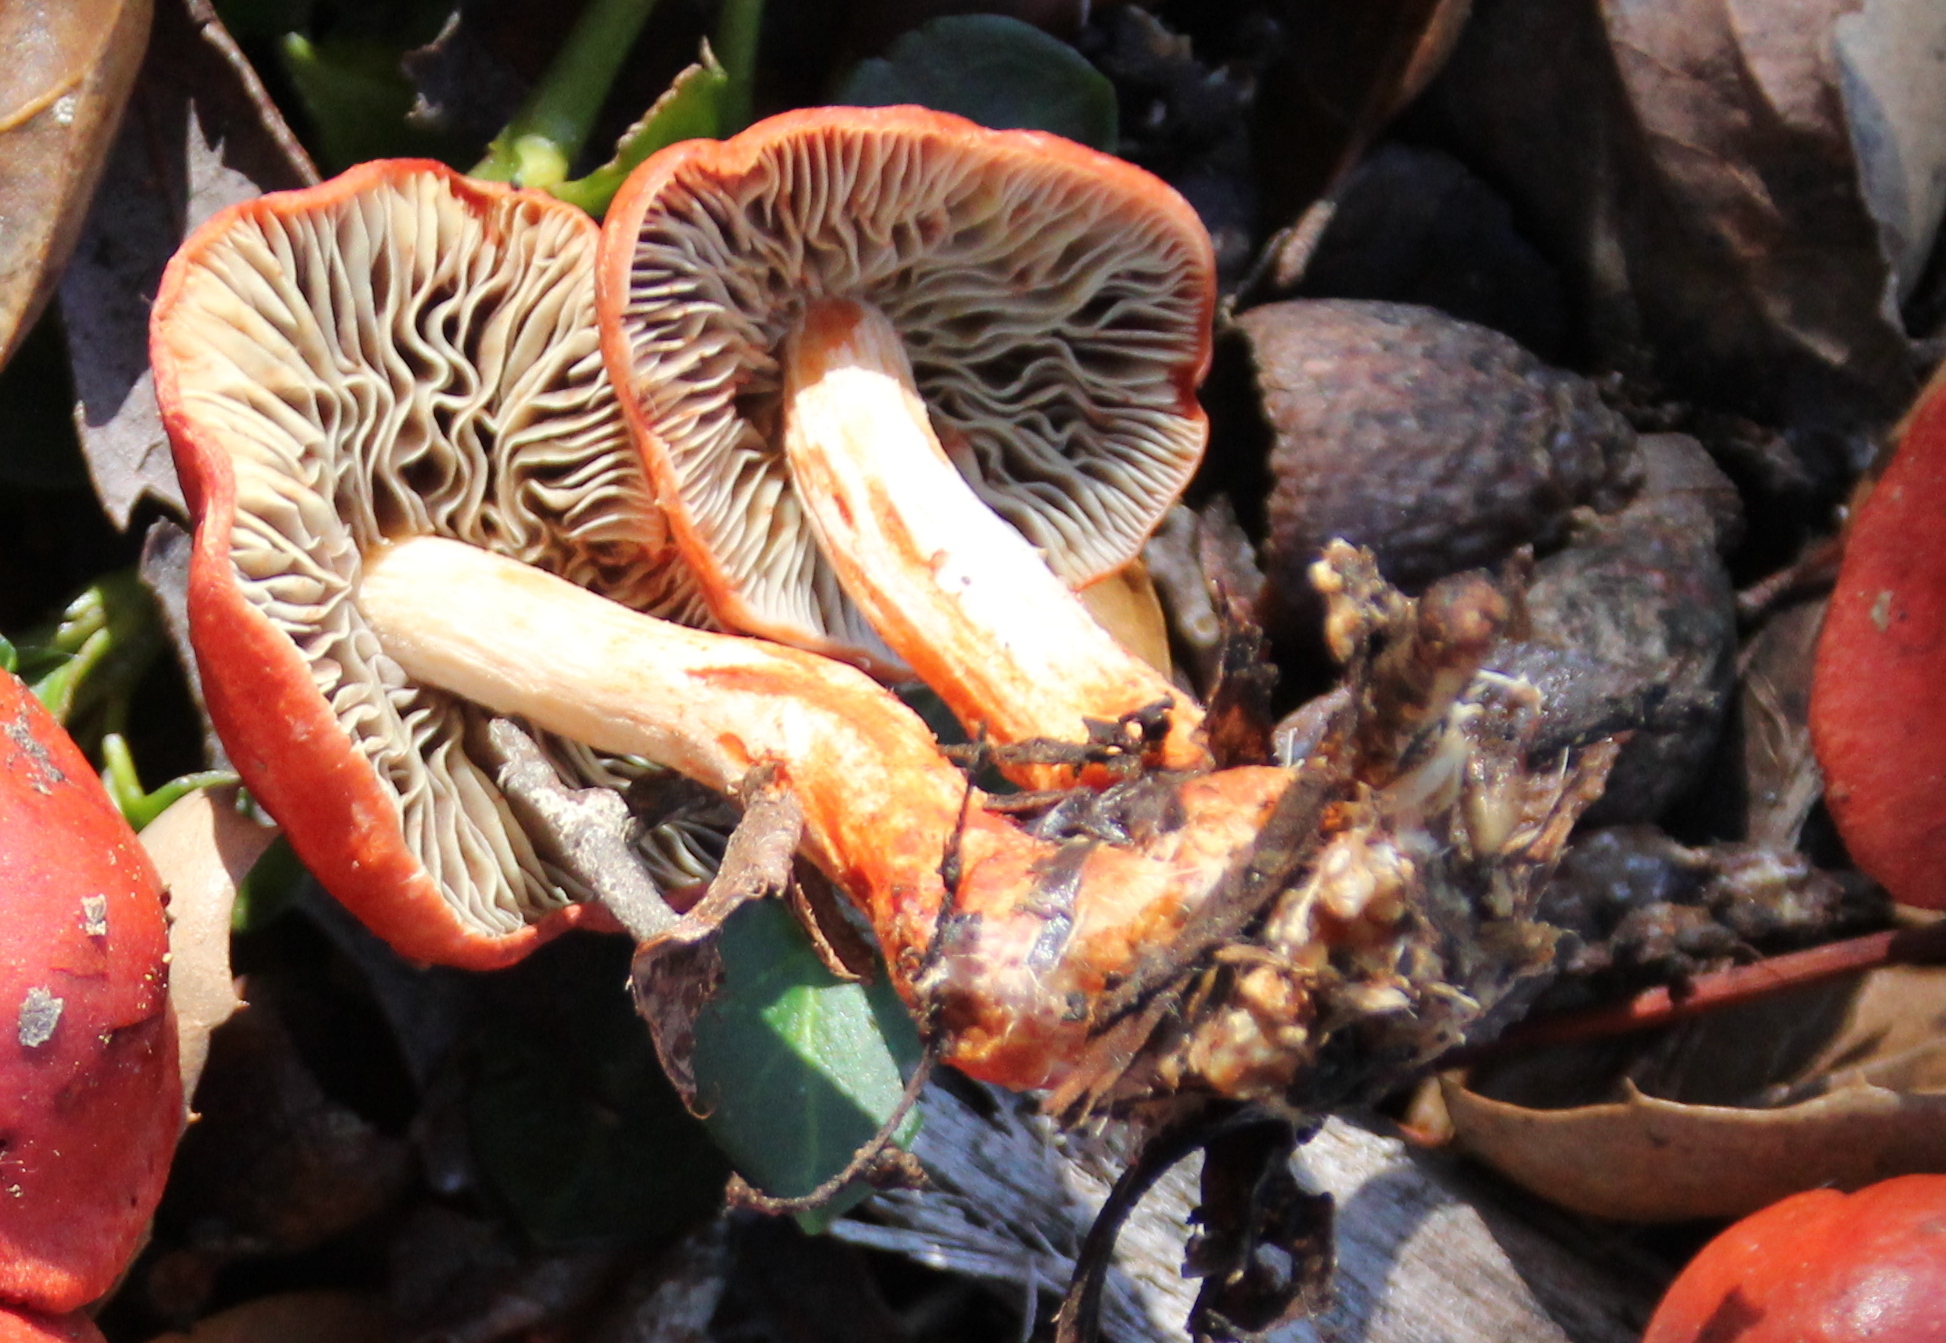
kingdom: Fungi
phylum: Basidiomycota
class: Agaricomycetes
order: Agaricales
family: Strophariaceae
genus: Leratiomyces
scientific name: Leratiomyces ceres
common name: Redlead roundhead
